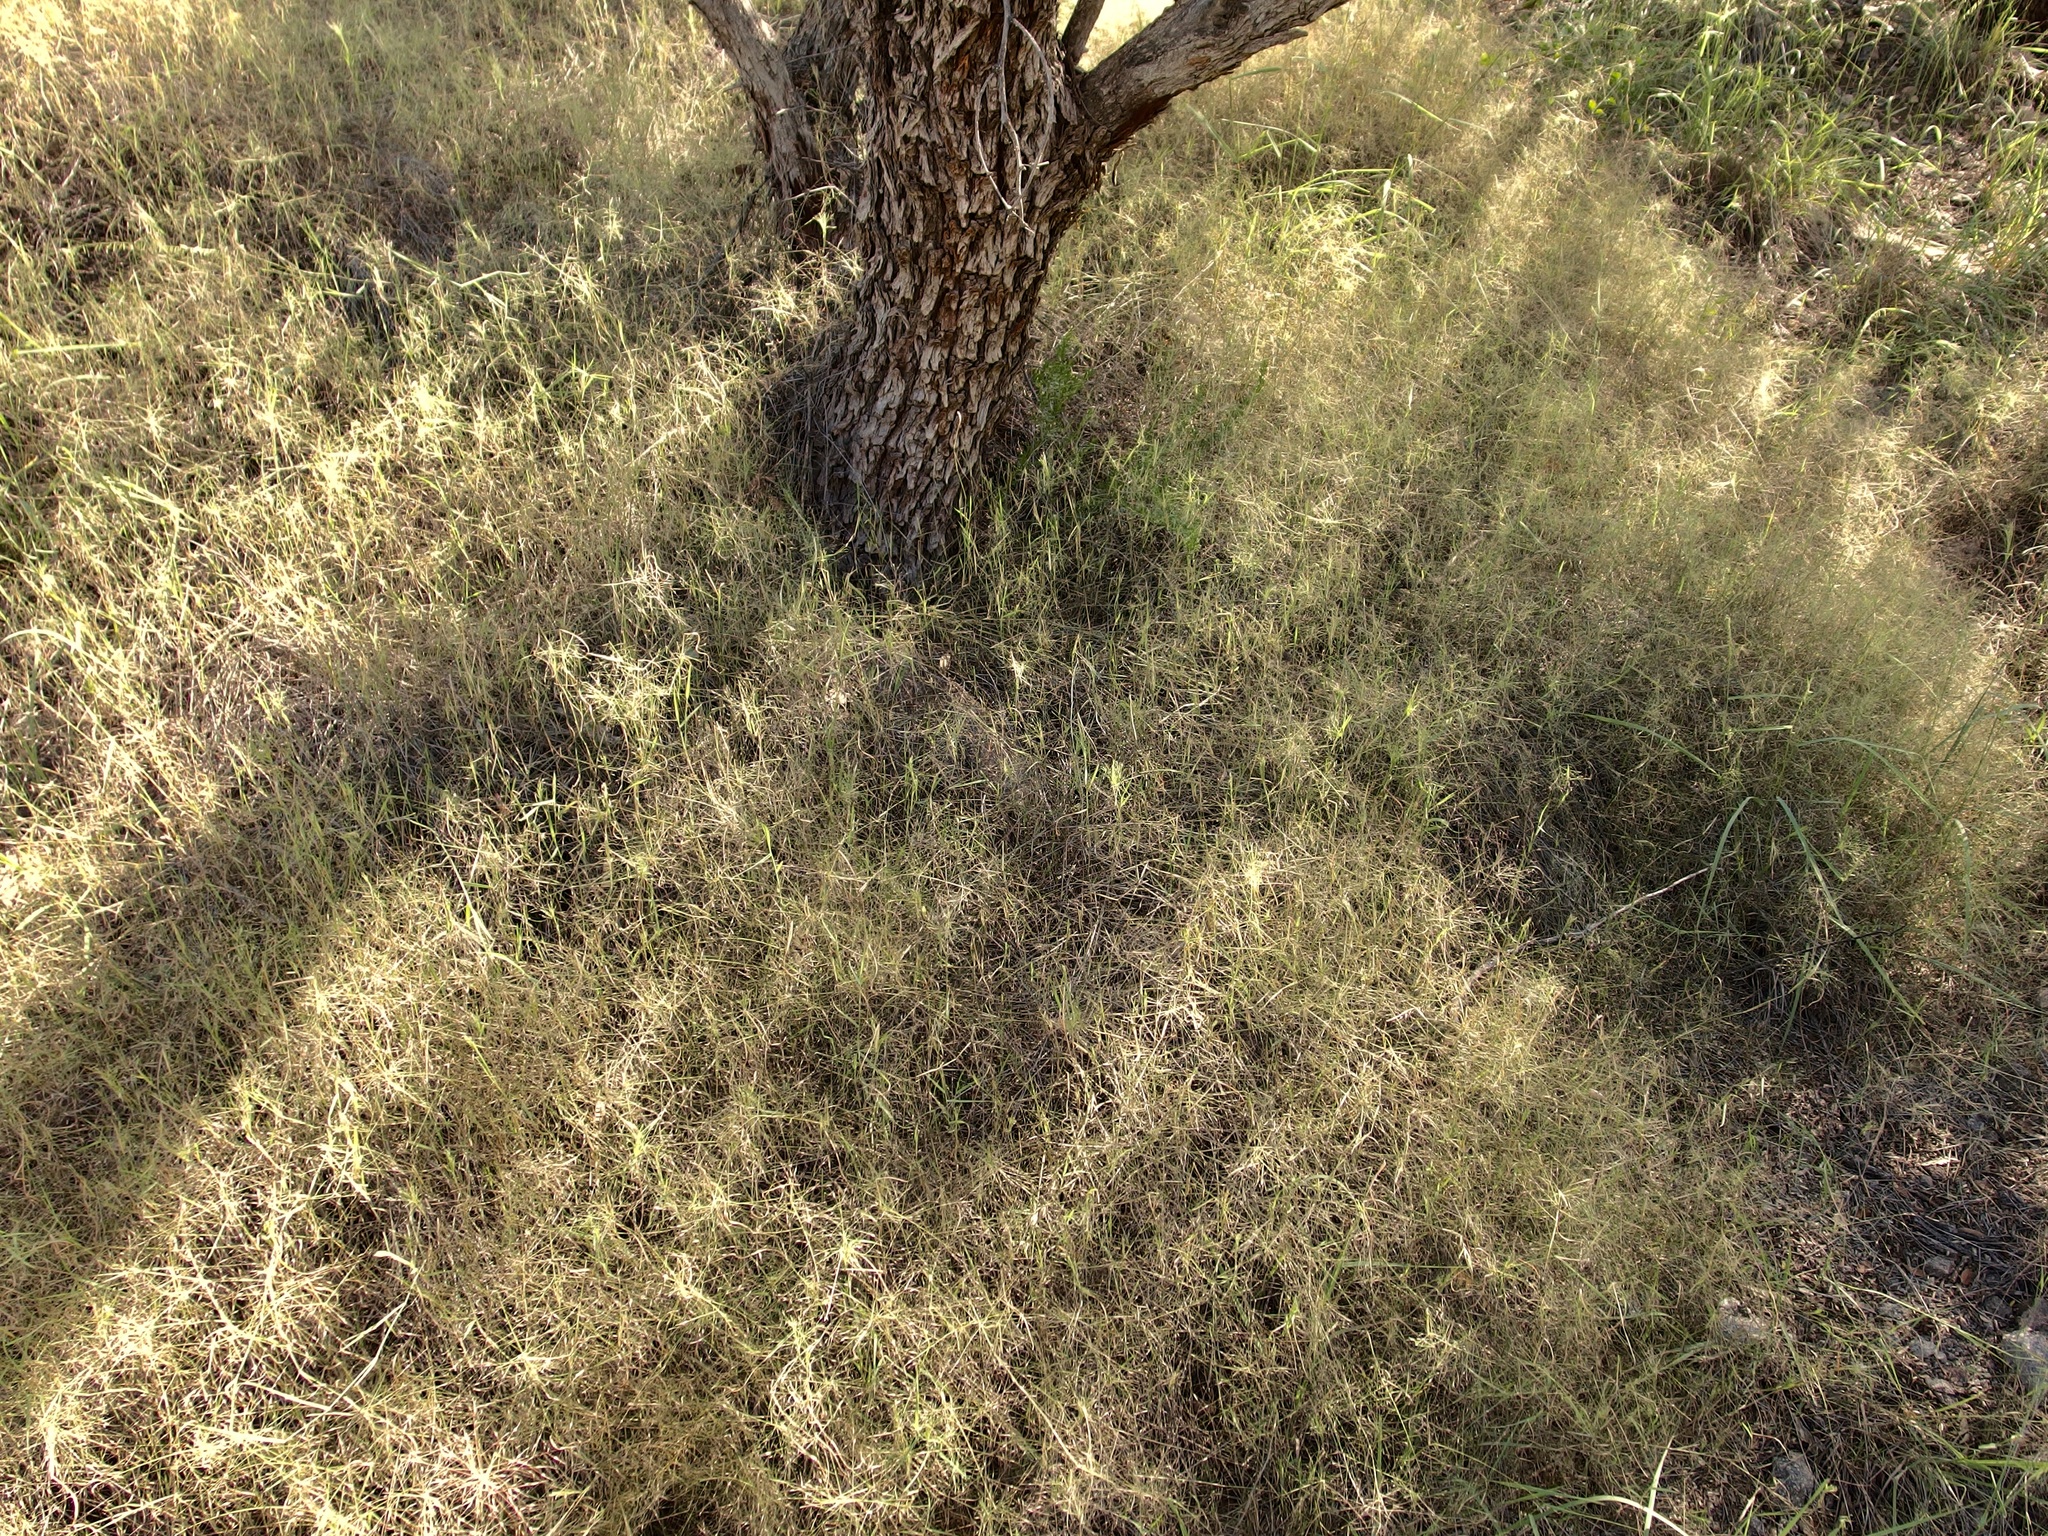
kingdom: Plantae
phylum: Tracheophyta
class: Liliopsida
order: Poales
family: Poaceae
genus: Muhlenbergia
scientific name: Muhlenbergia porteri
